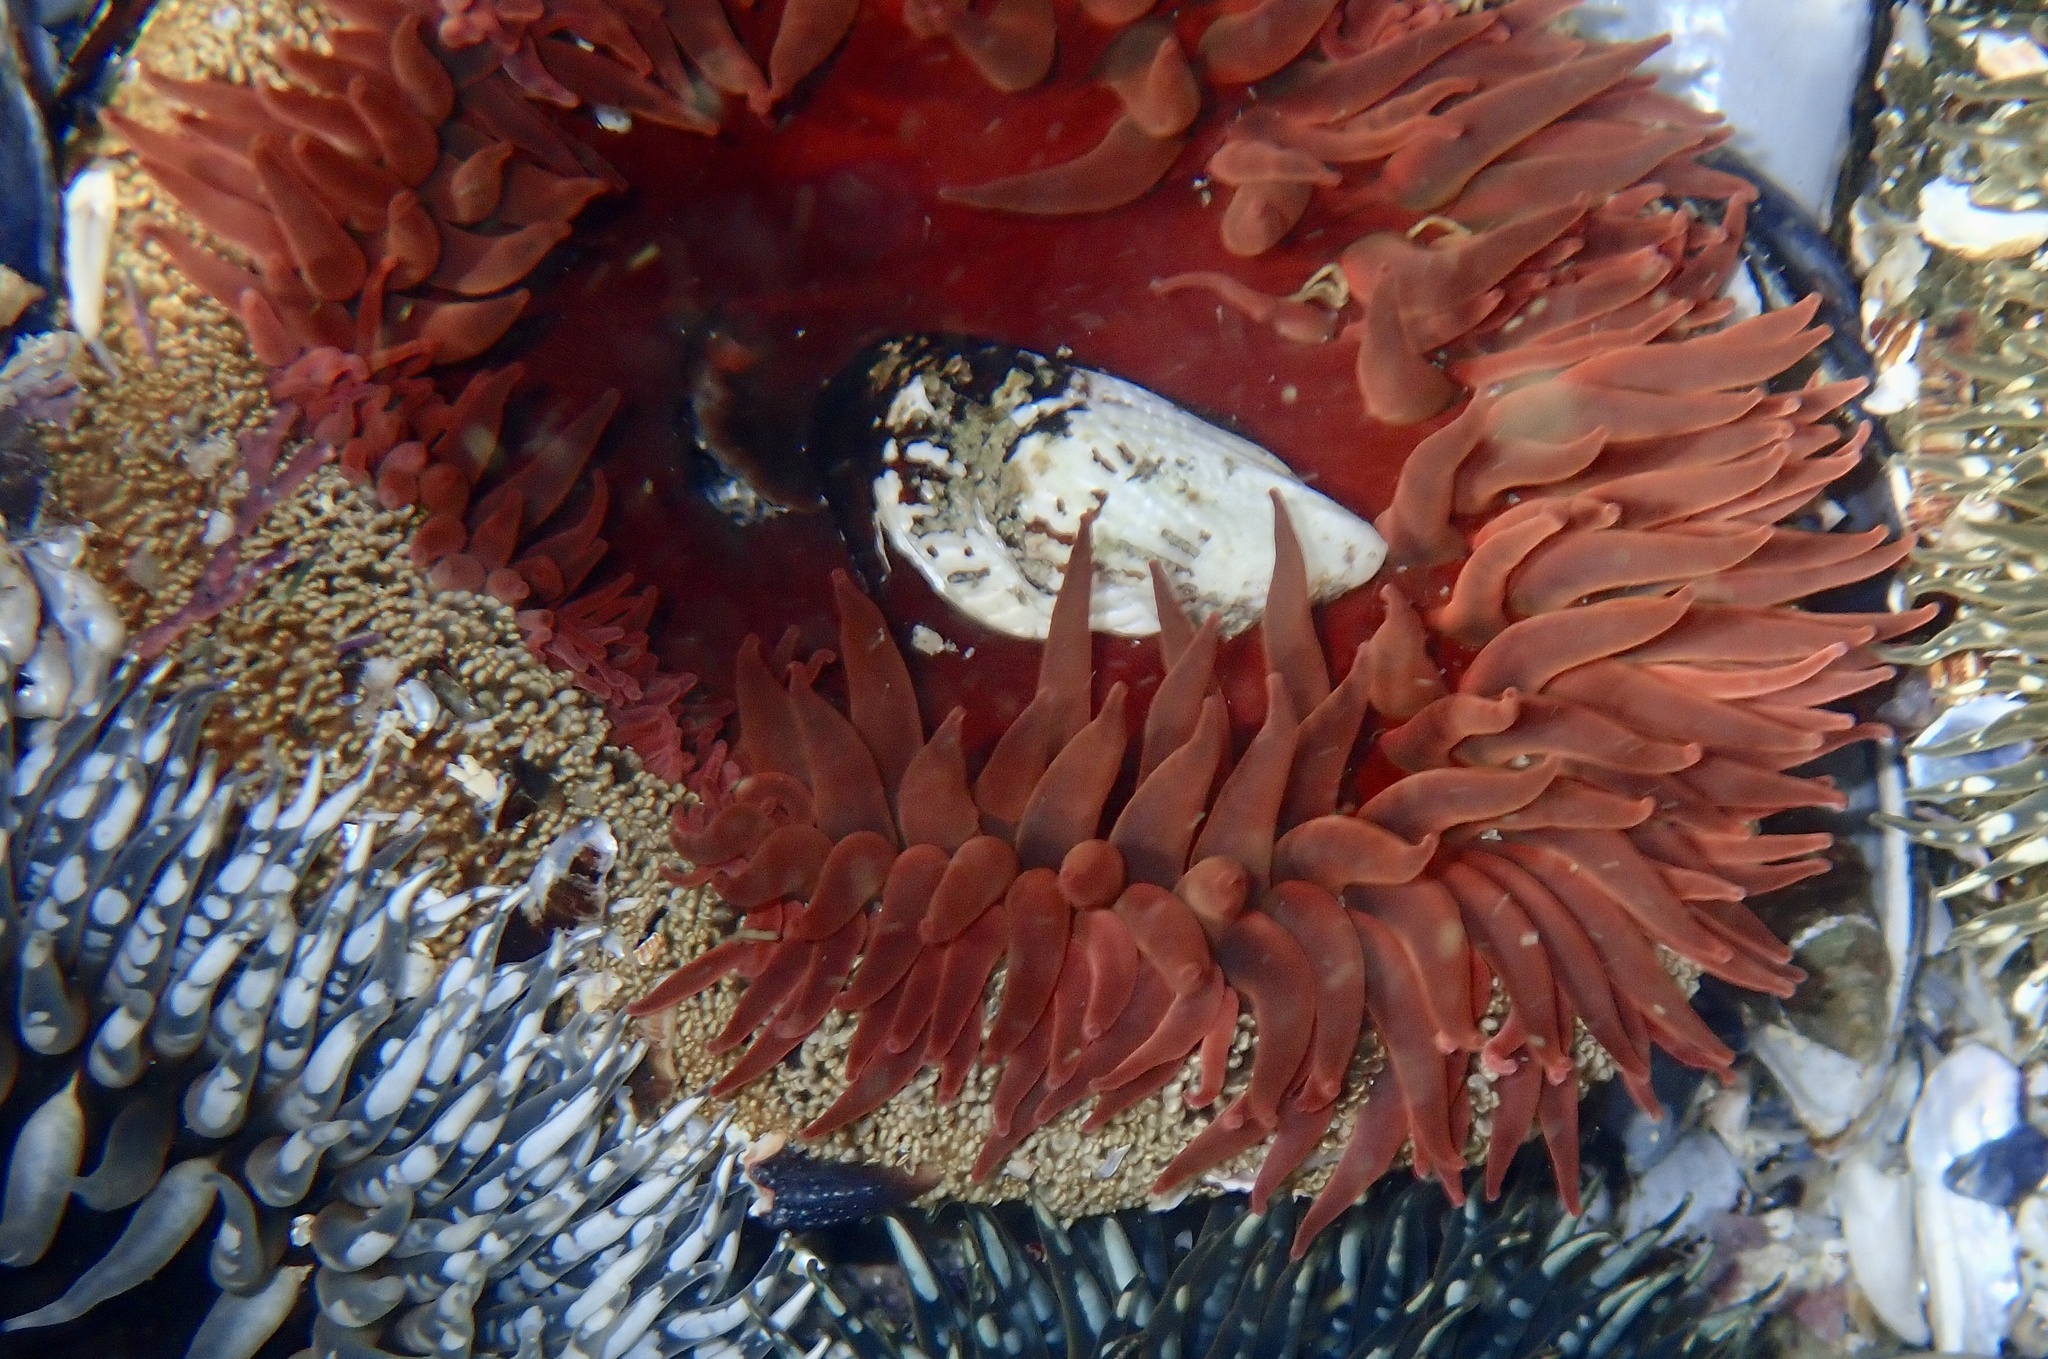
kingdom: Animalia
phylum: Cnidaria
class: Anthozoa
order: Actiniaria
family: Actiniidae
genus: Bunodactis
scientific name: Bunodactis reynaudi
